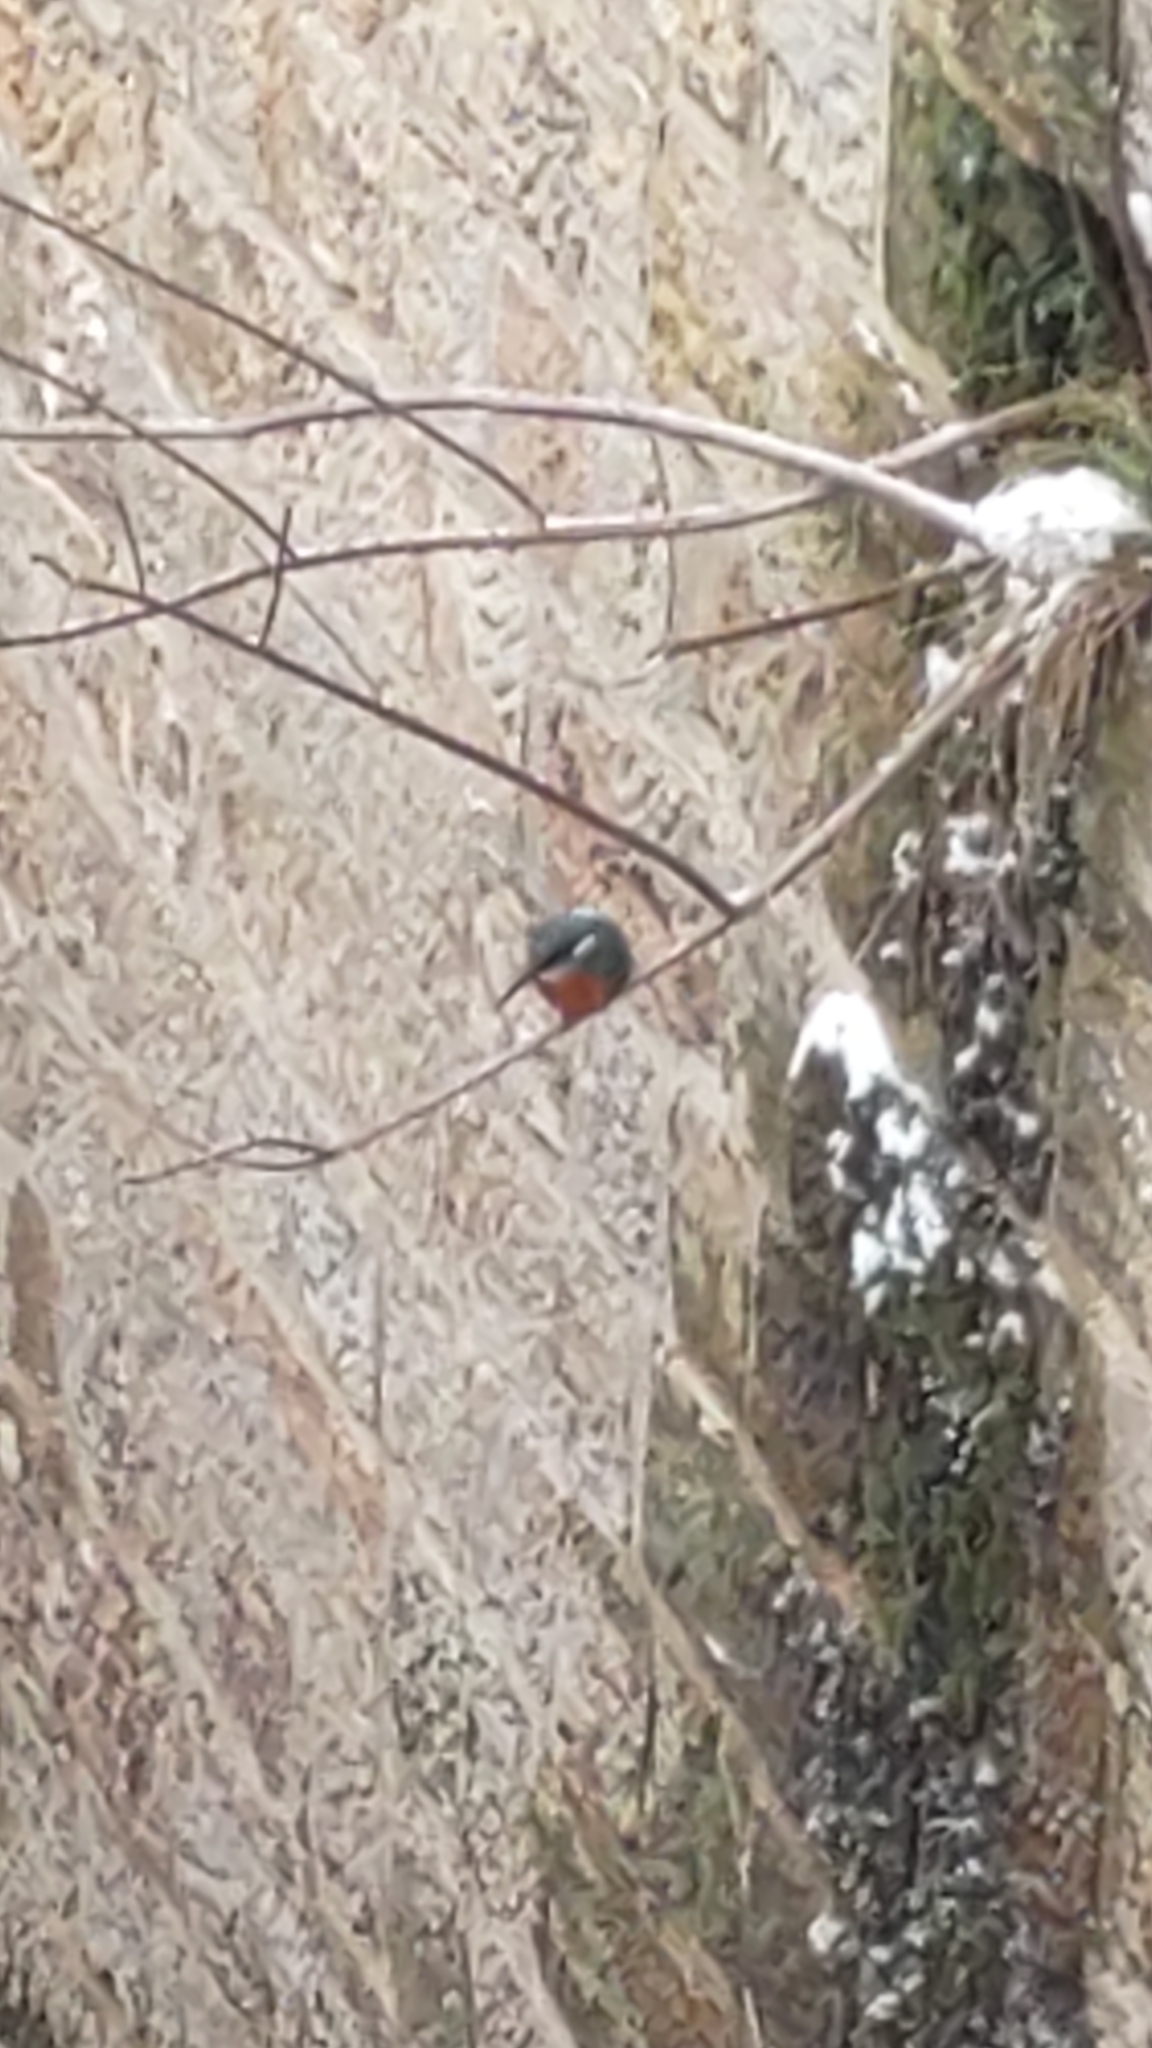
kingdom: Animalia
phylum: Chordata
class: Aves
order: Coraciiformes
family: Alcedinidae
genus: Alcedo
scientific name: Alcedo atthis
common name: Common kingfisher
